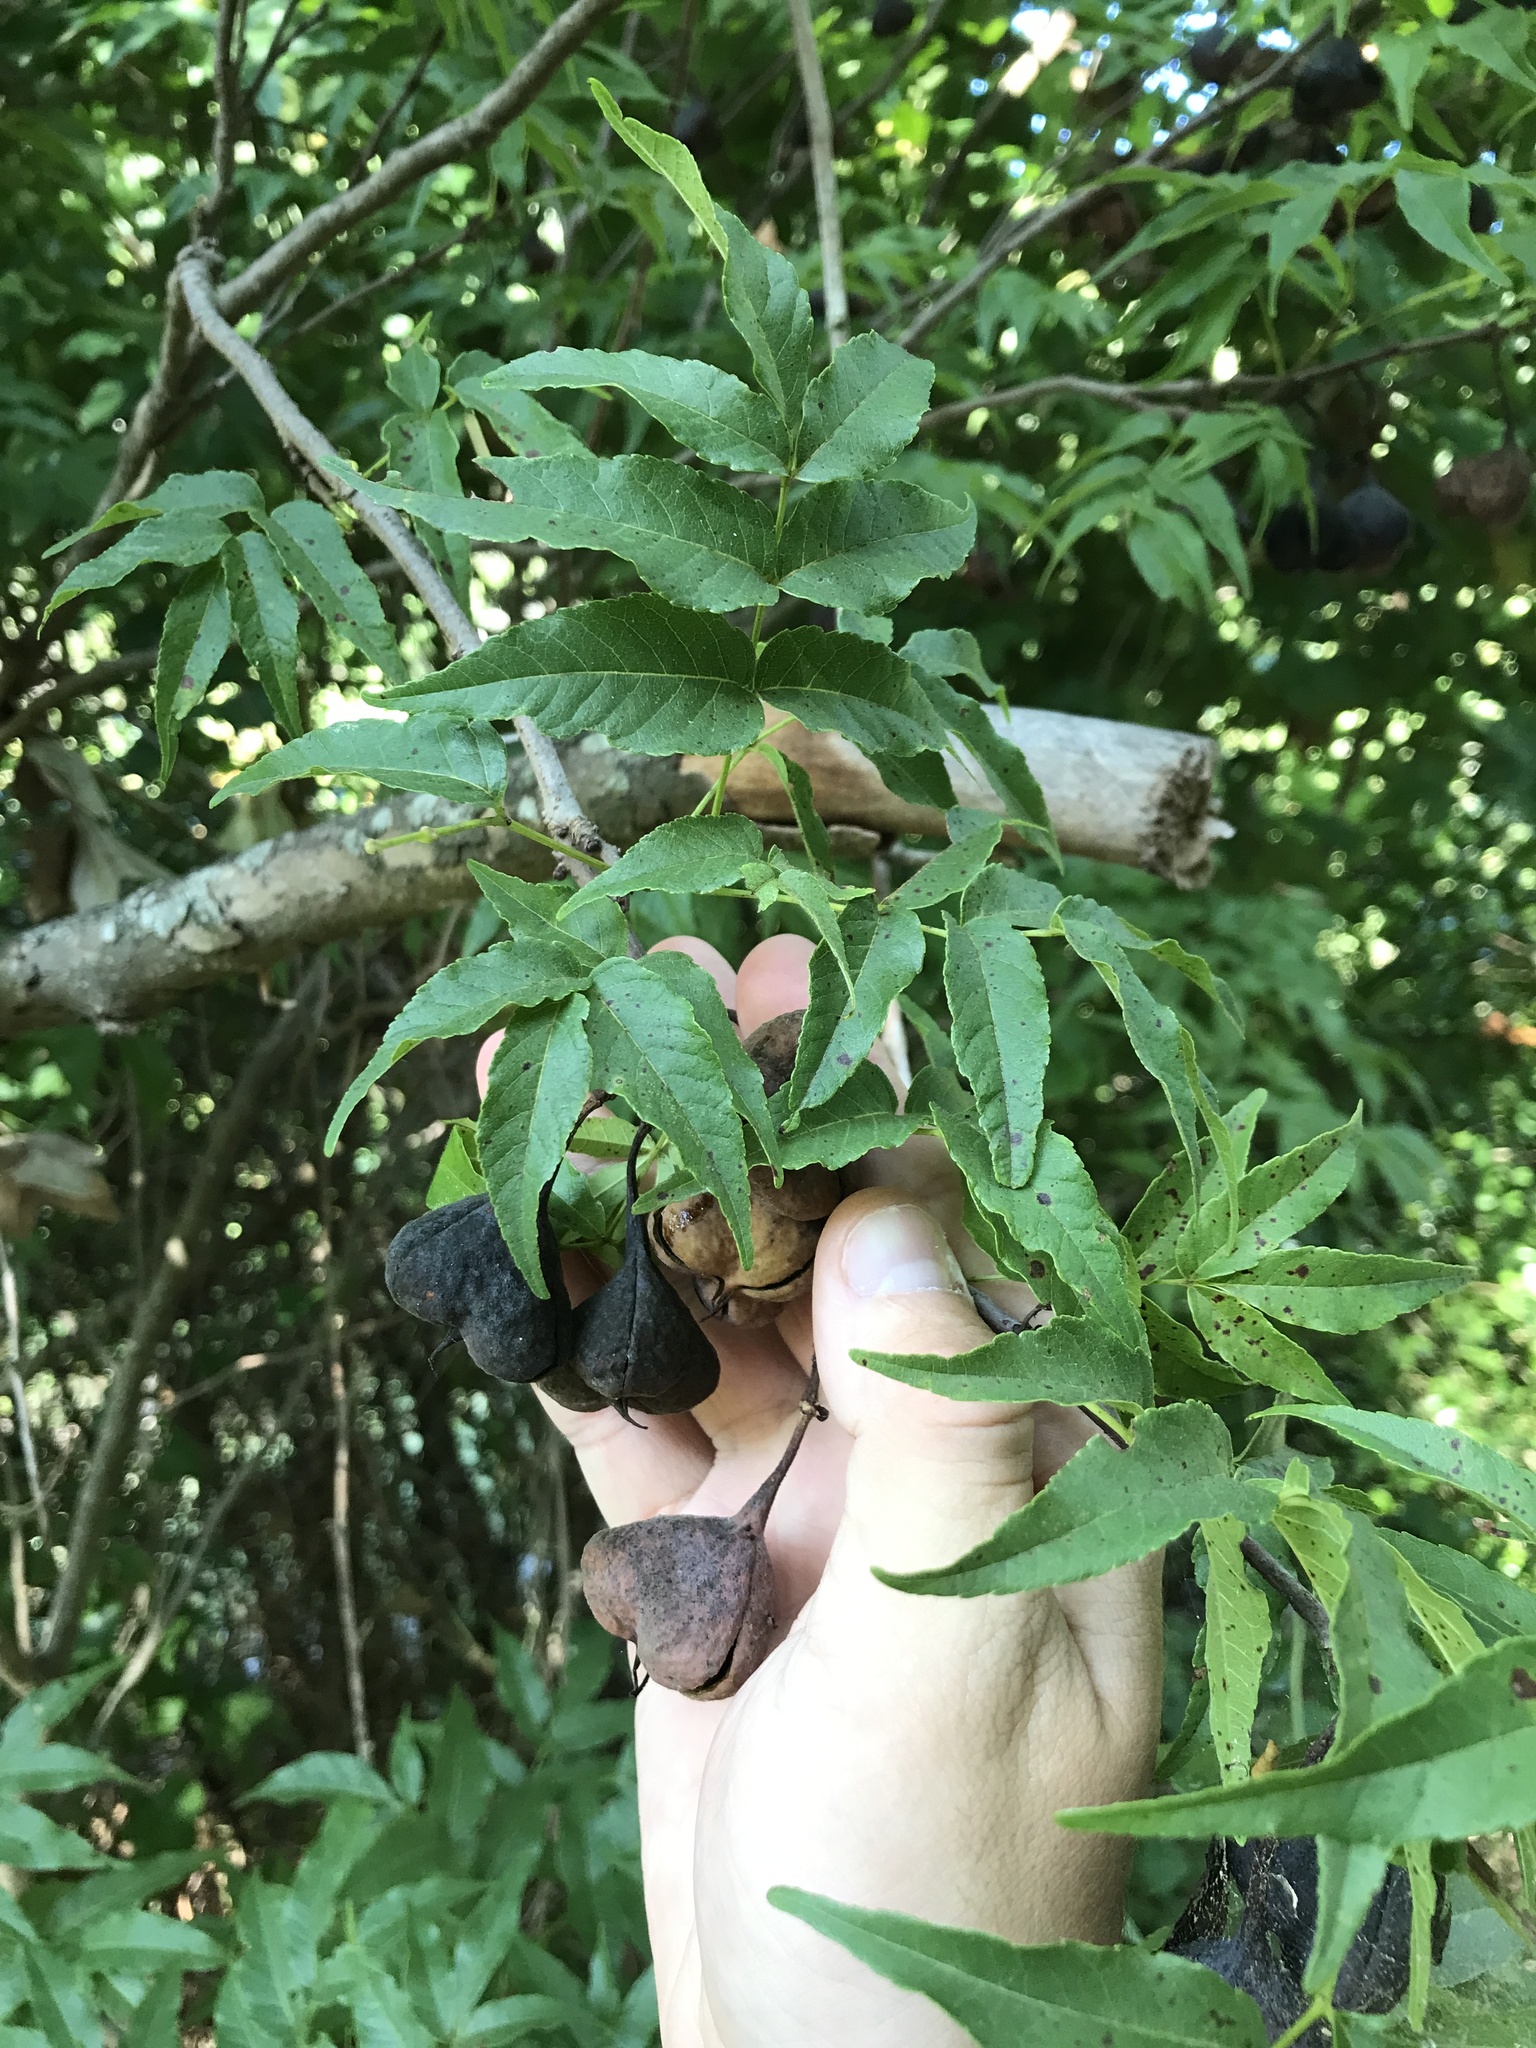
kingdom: Plantae
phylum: Tracheophyta
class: Magnoliopsida
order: Sapindales
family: Sapindaceae
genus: Ungnadia
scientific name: Ungnadia speciosa
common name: Texas-buckeye
